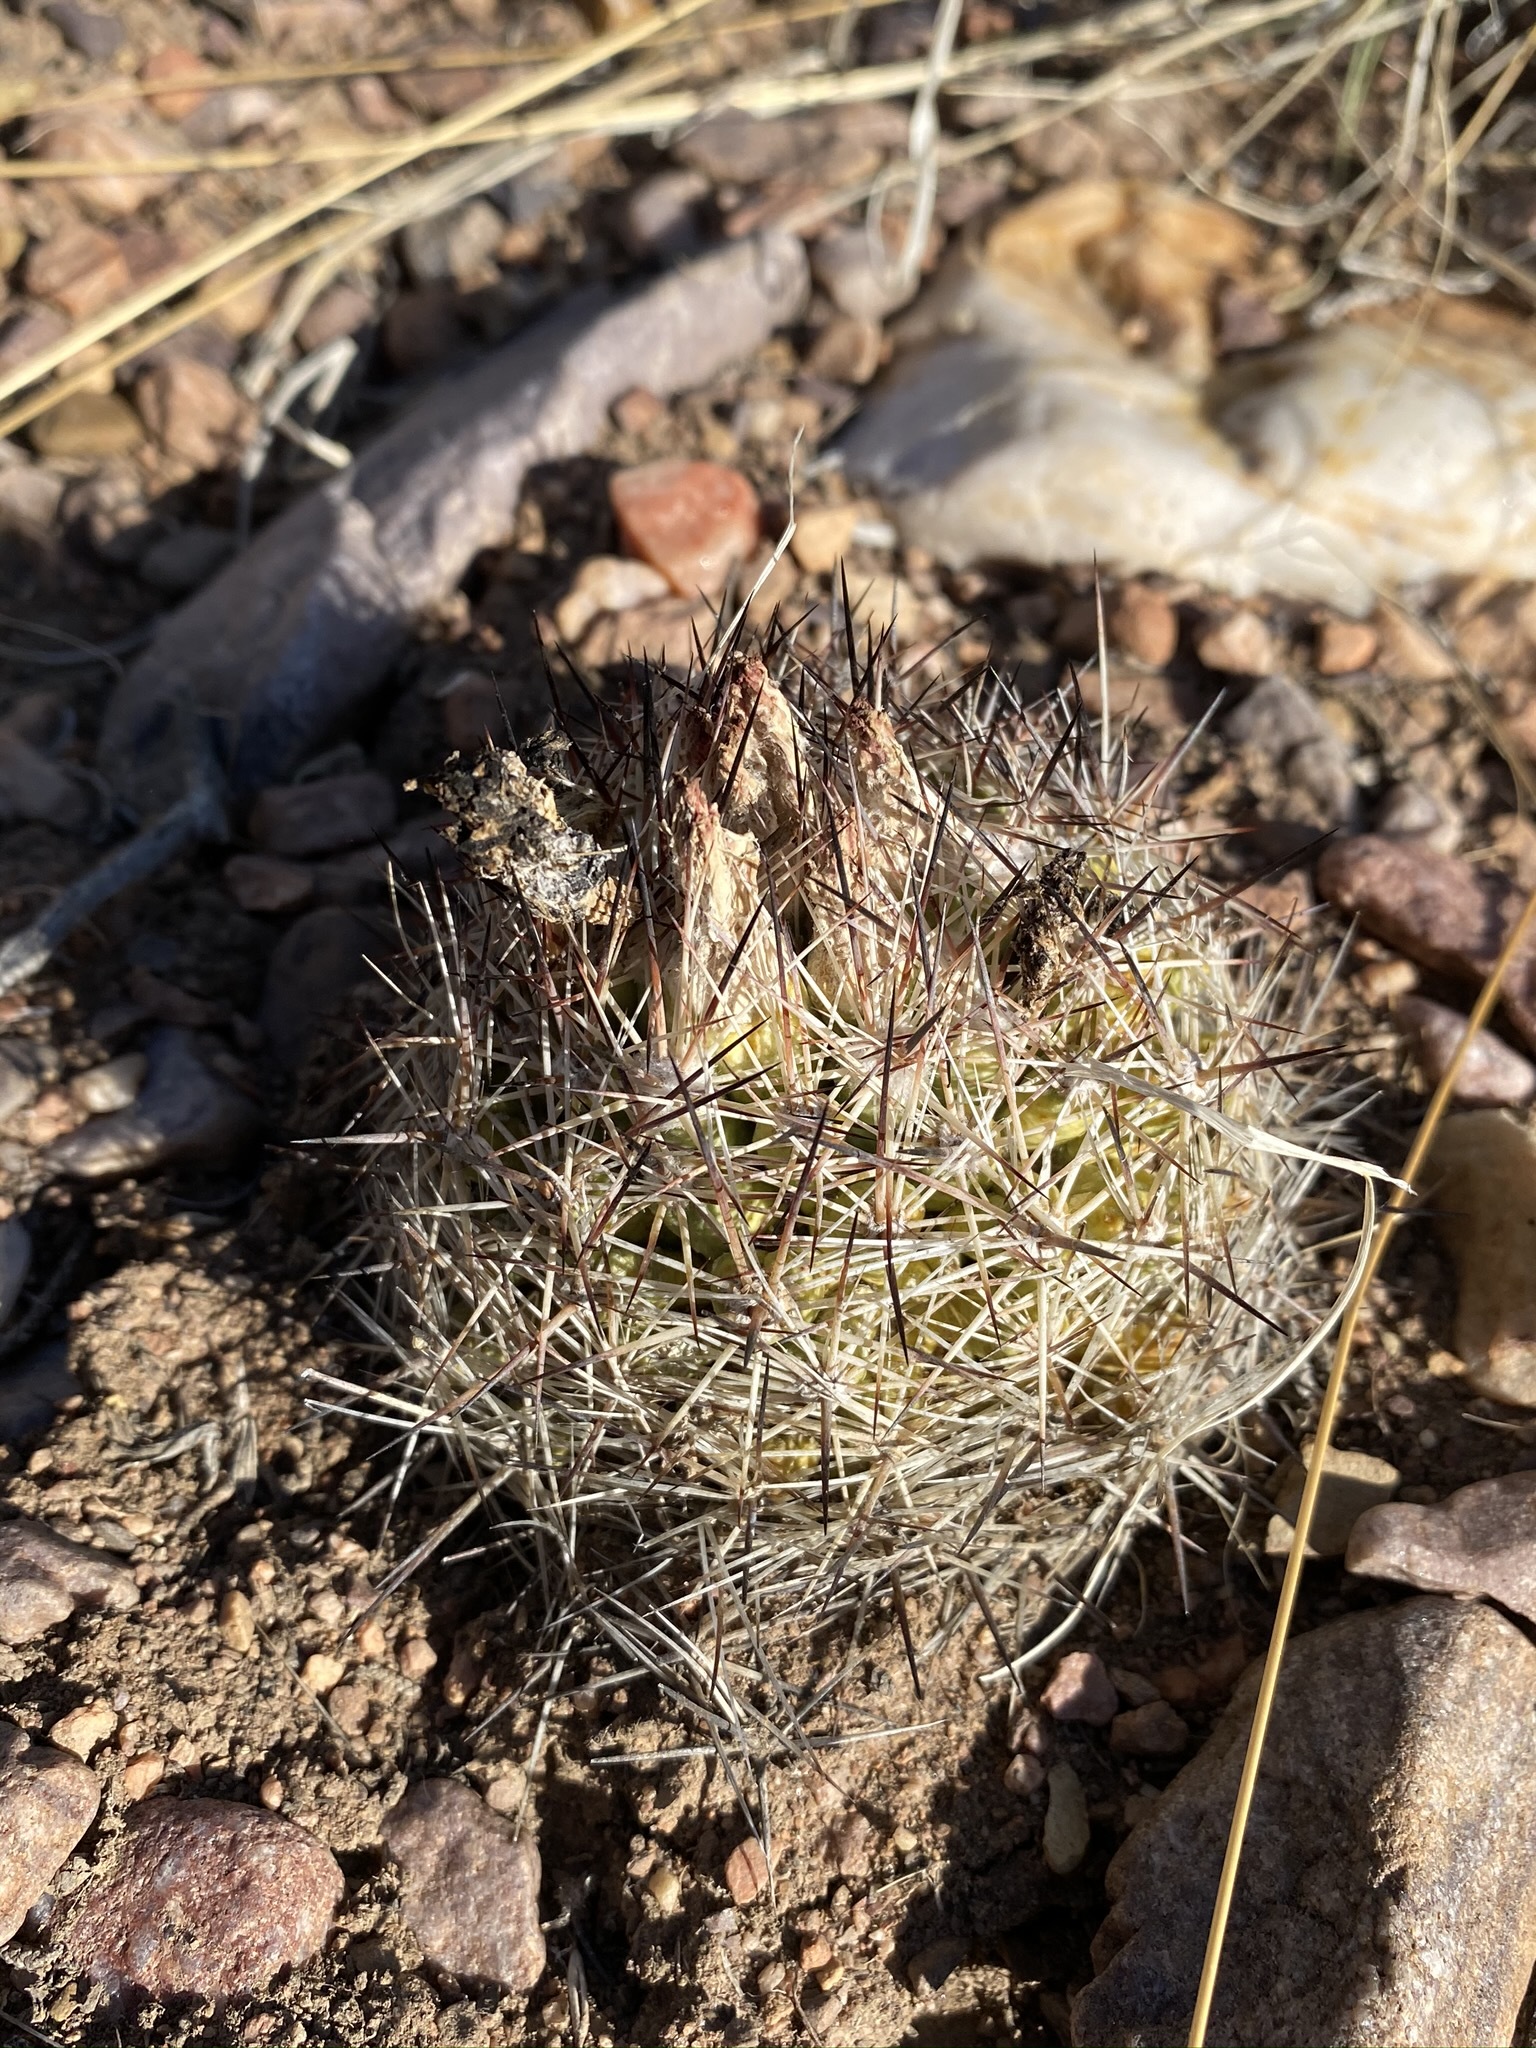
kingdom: Plantae
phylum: Tracheophyta
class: Magnoliopsida
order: Caryophyllales
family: Cactaceae
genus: Pelecyphora
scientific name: Pelecyphora vivipara
